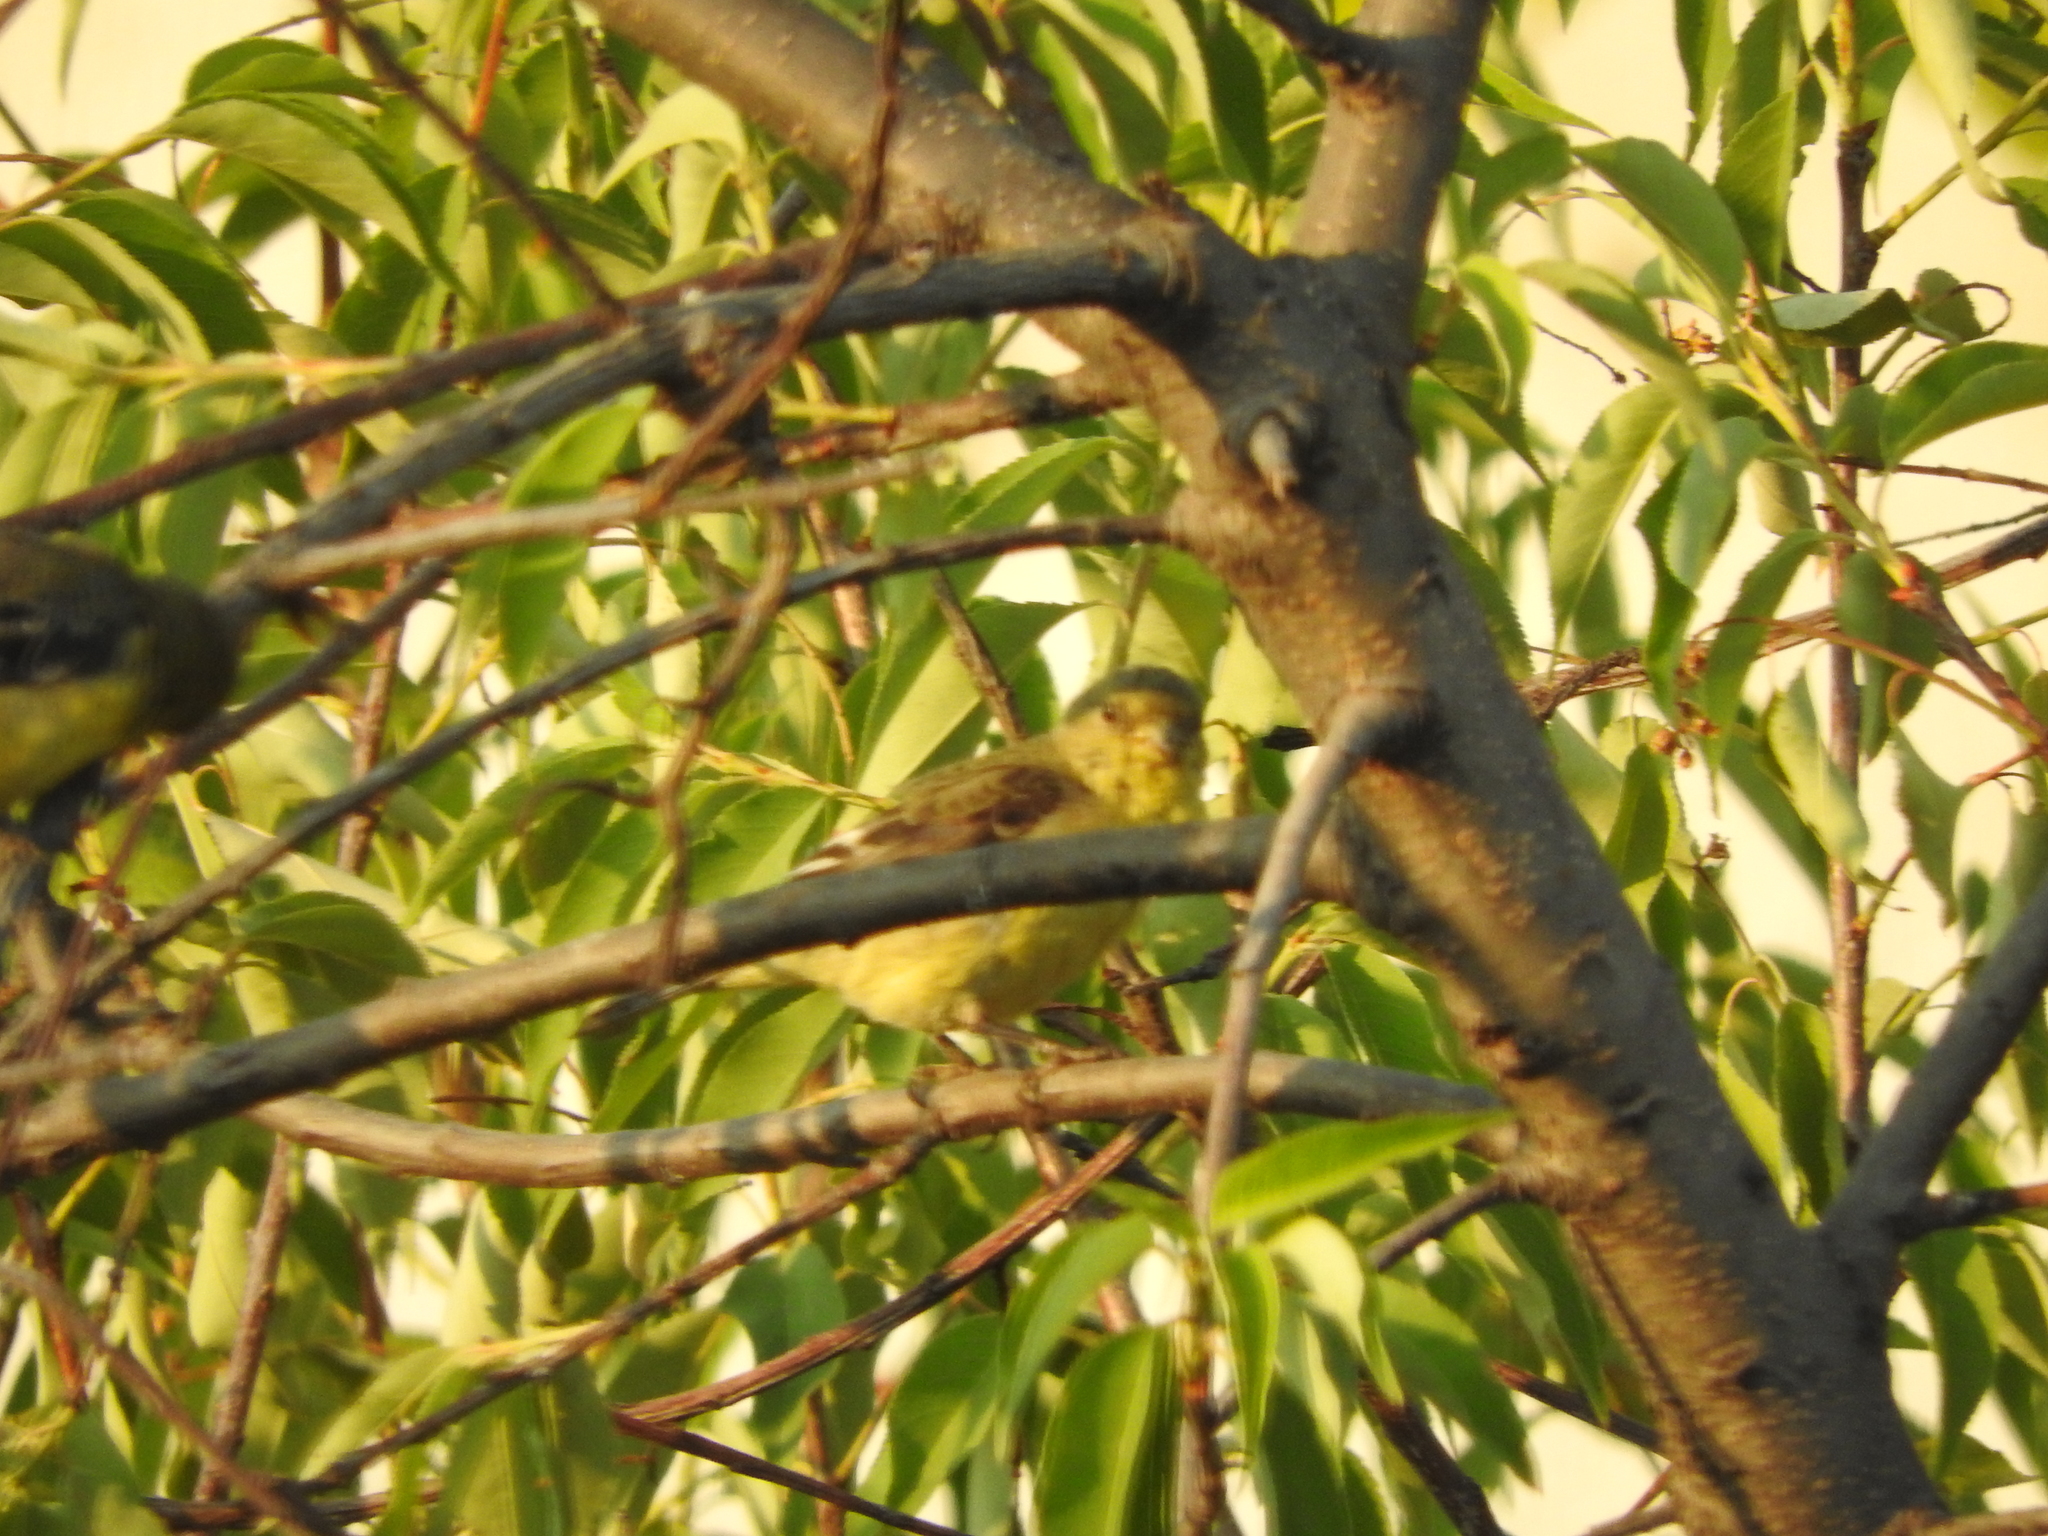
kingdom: Animalia
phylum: Chordata
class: Aves
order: Passeriformes
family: Fringillidae
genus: Spinus
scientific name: Spinus psaltria
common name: Lesser goldfinch
